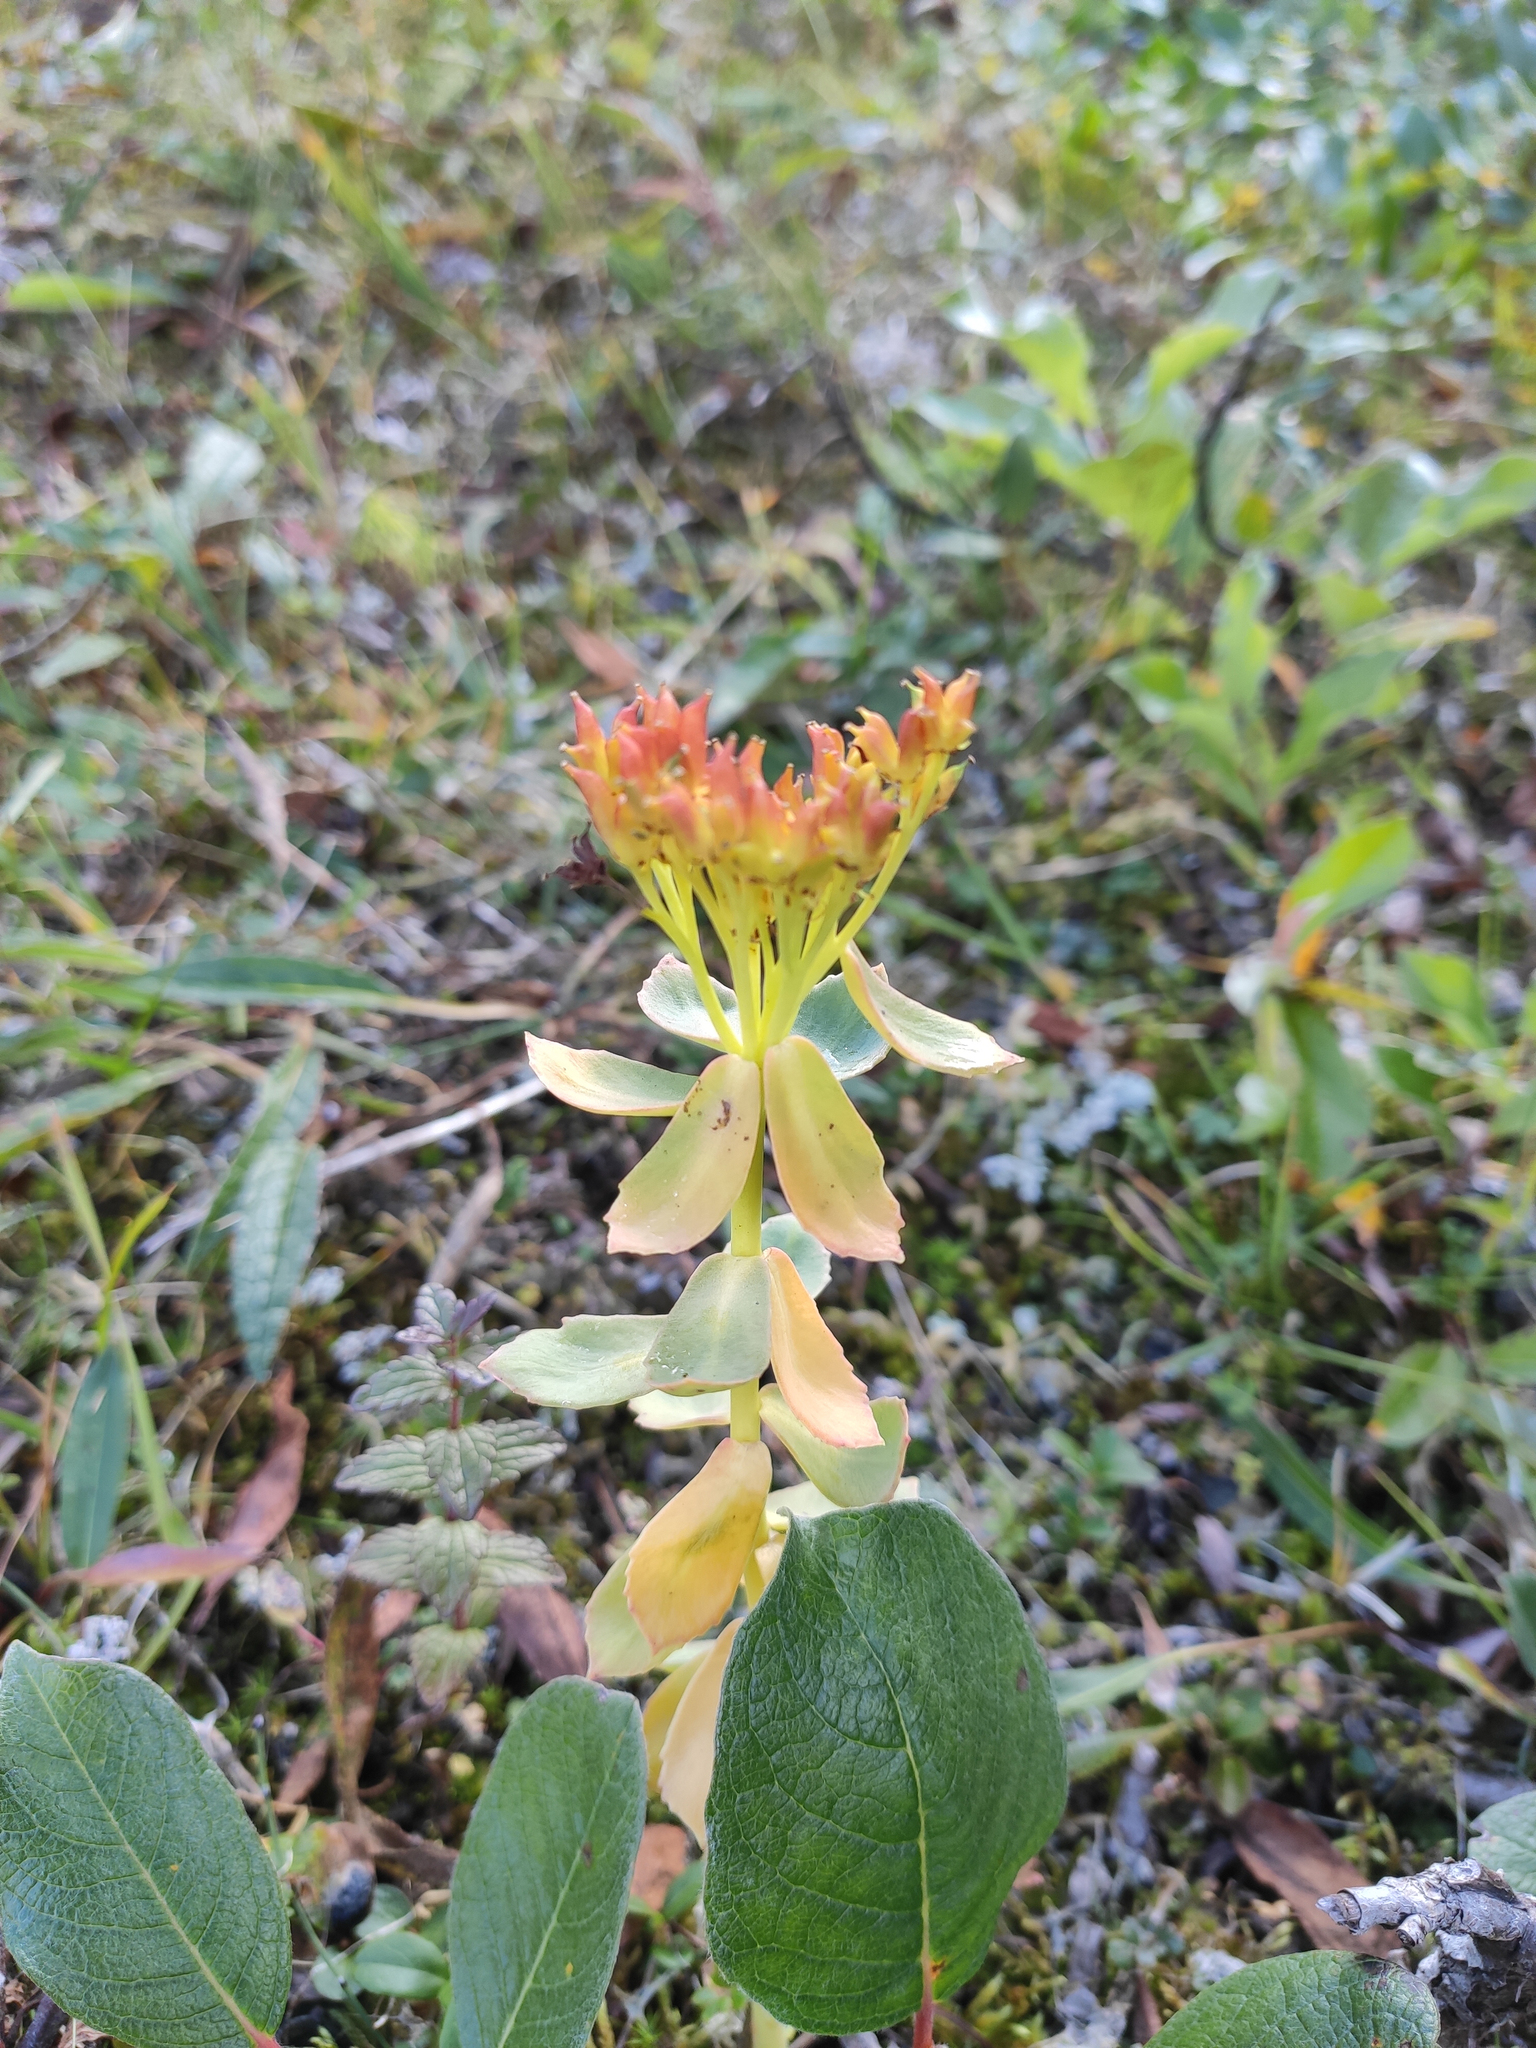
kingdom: Plantae
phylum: Tracheophyta
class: Magnoliopsida
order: Saxifragales
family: Crassulaceae
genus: Rhodiola
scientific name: Rhodiola rosea
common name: Roseroot
